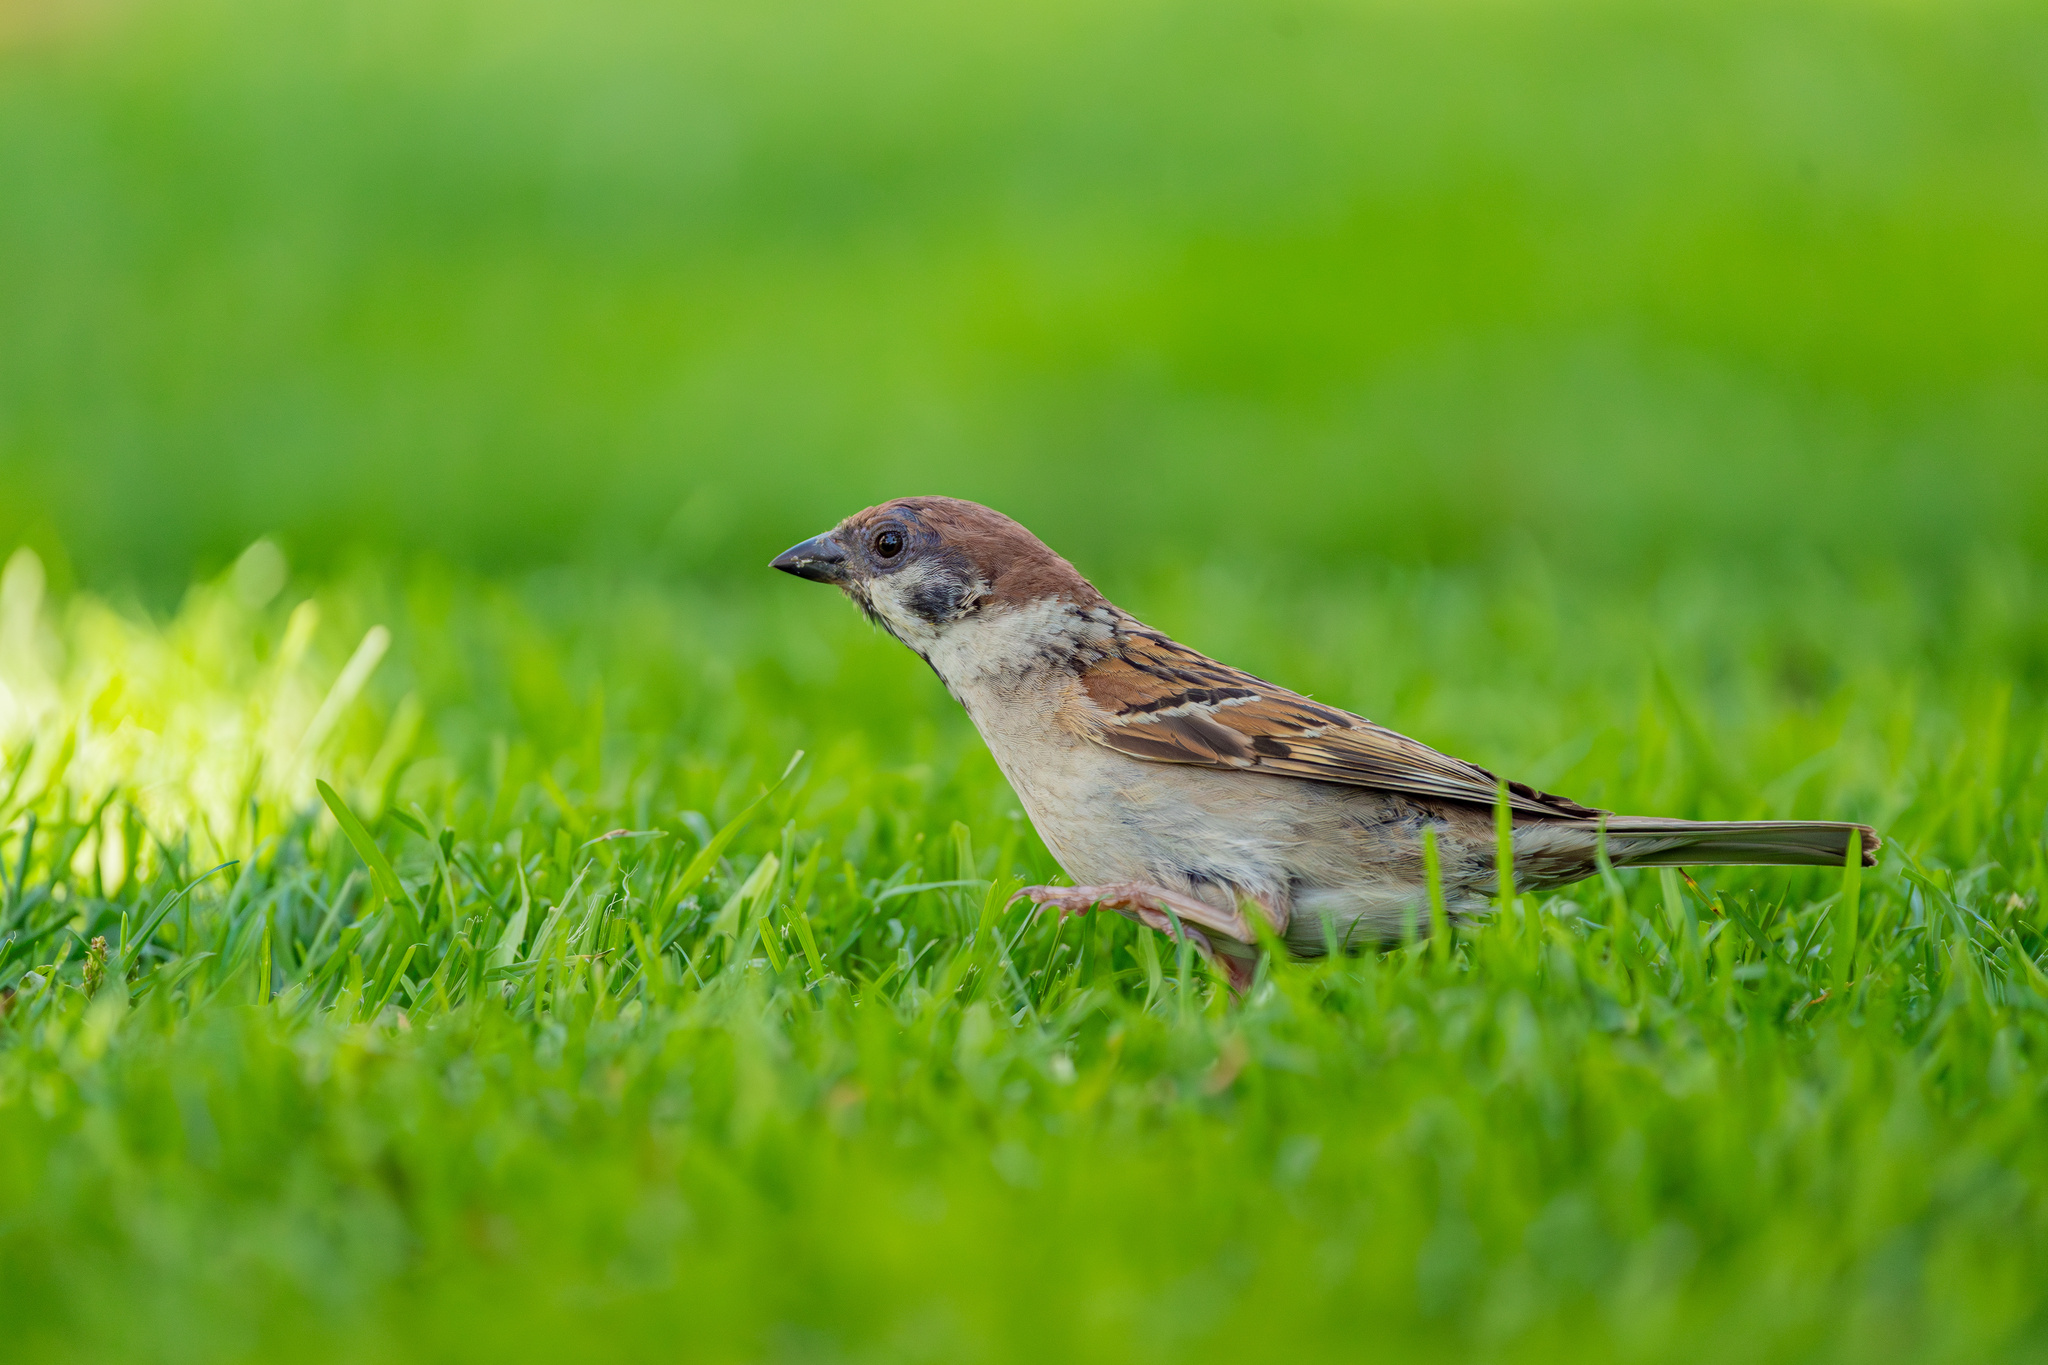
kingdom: Animalia
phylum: Chordata
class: Aves
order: Passeriformes
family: Passeridae
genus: Passer
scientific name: Passer montanus
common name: Eurasian tree sparrow
